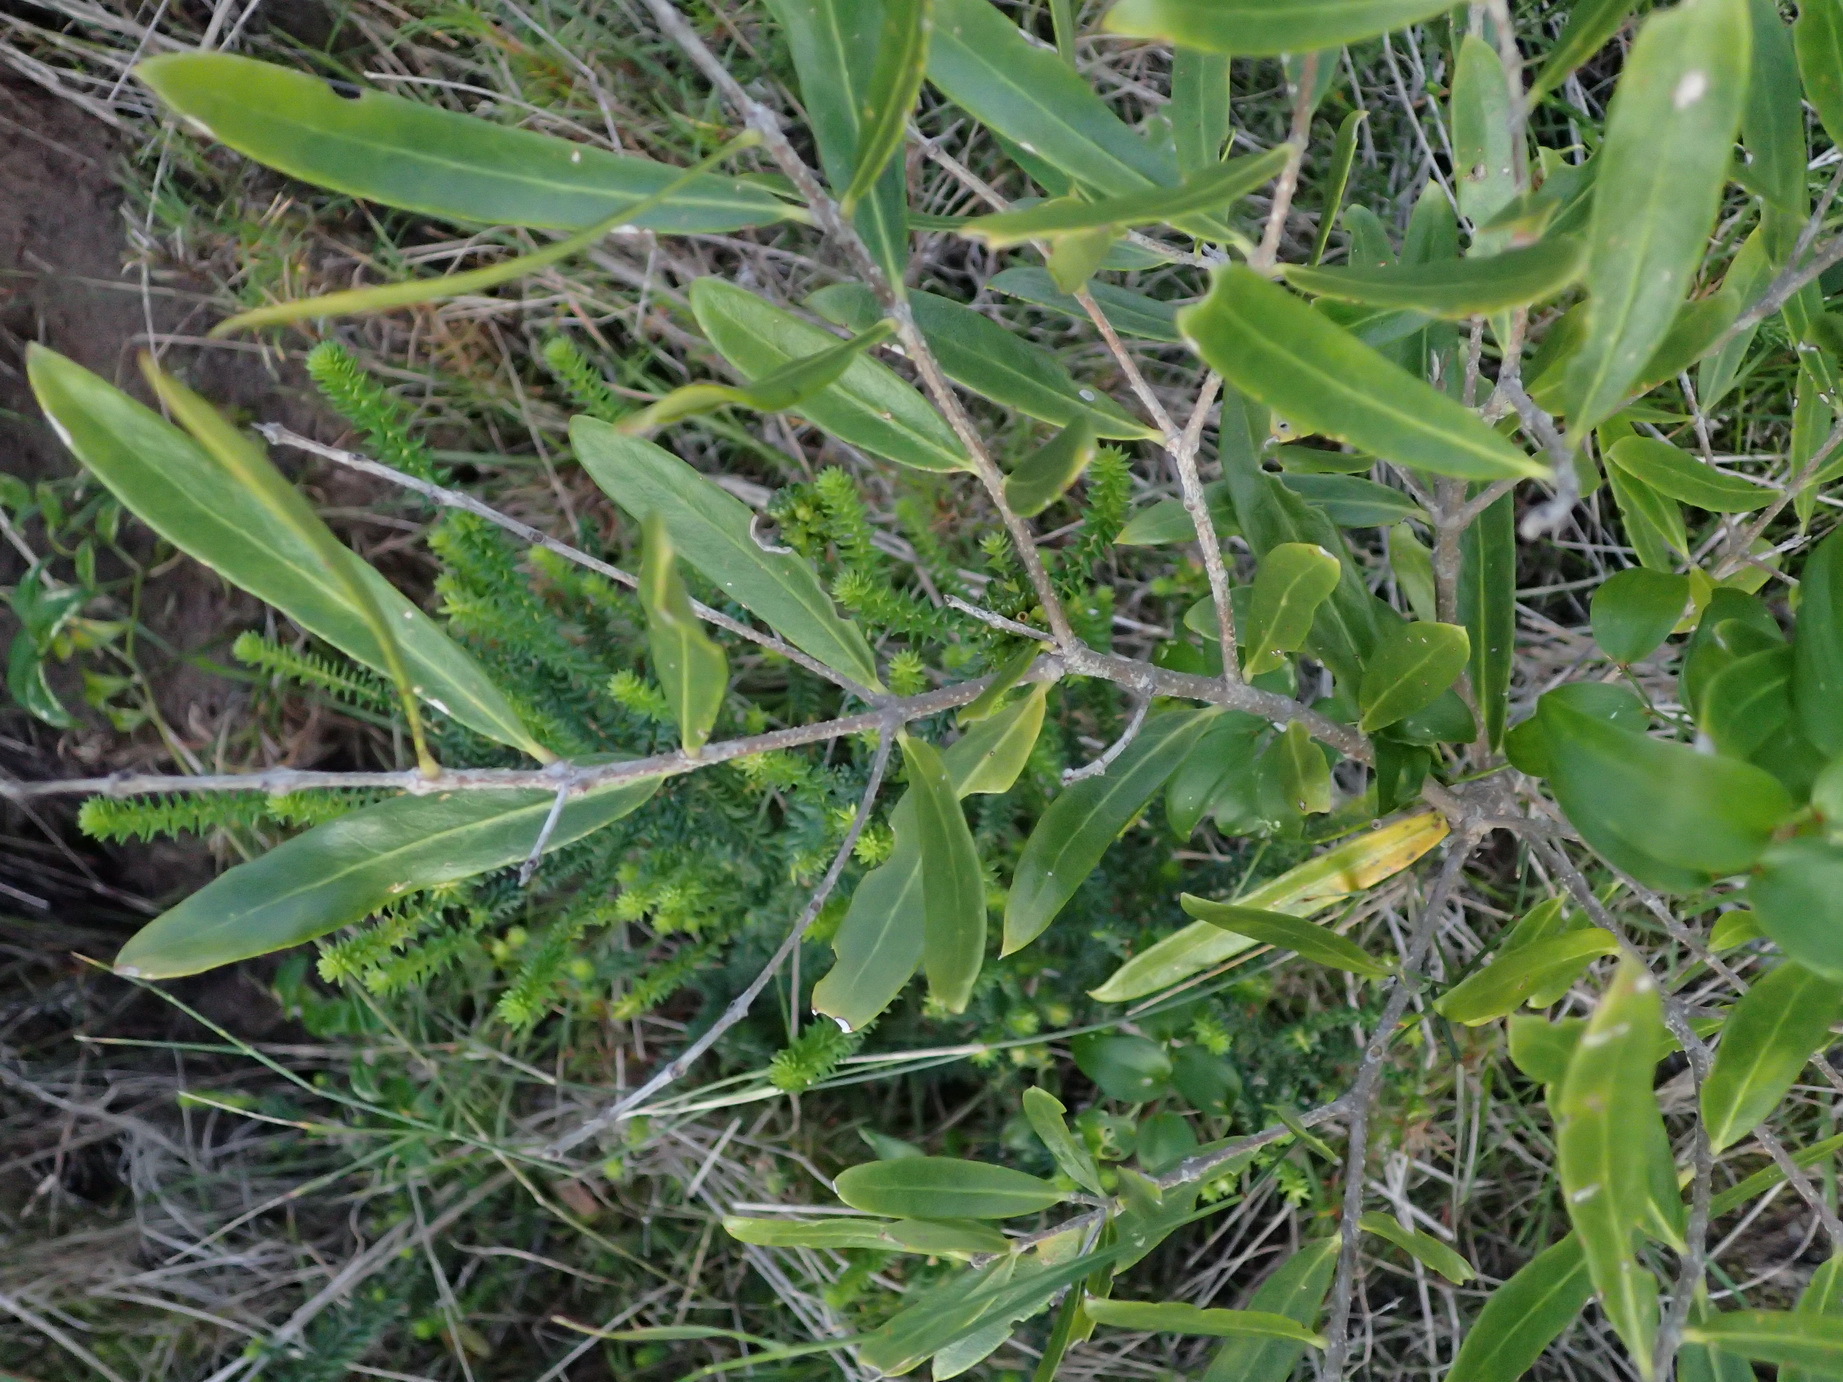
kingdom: Plantae
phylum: Tracheophyta
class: Magnoliopsida
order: Lamiales
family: Oleaceae
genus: Olea
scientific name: Olea europaea
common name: Olive
